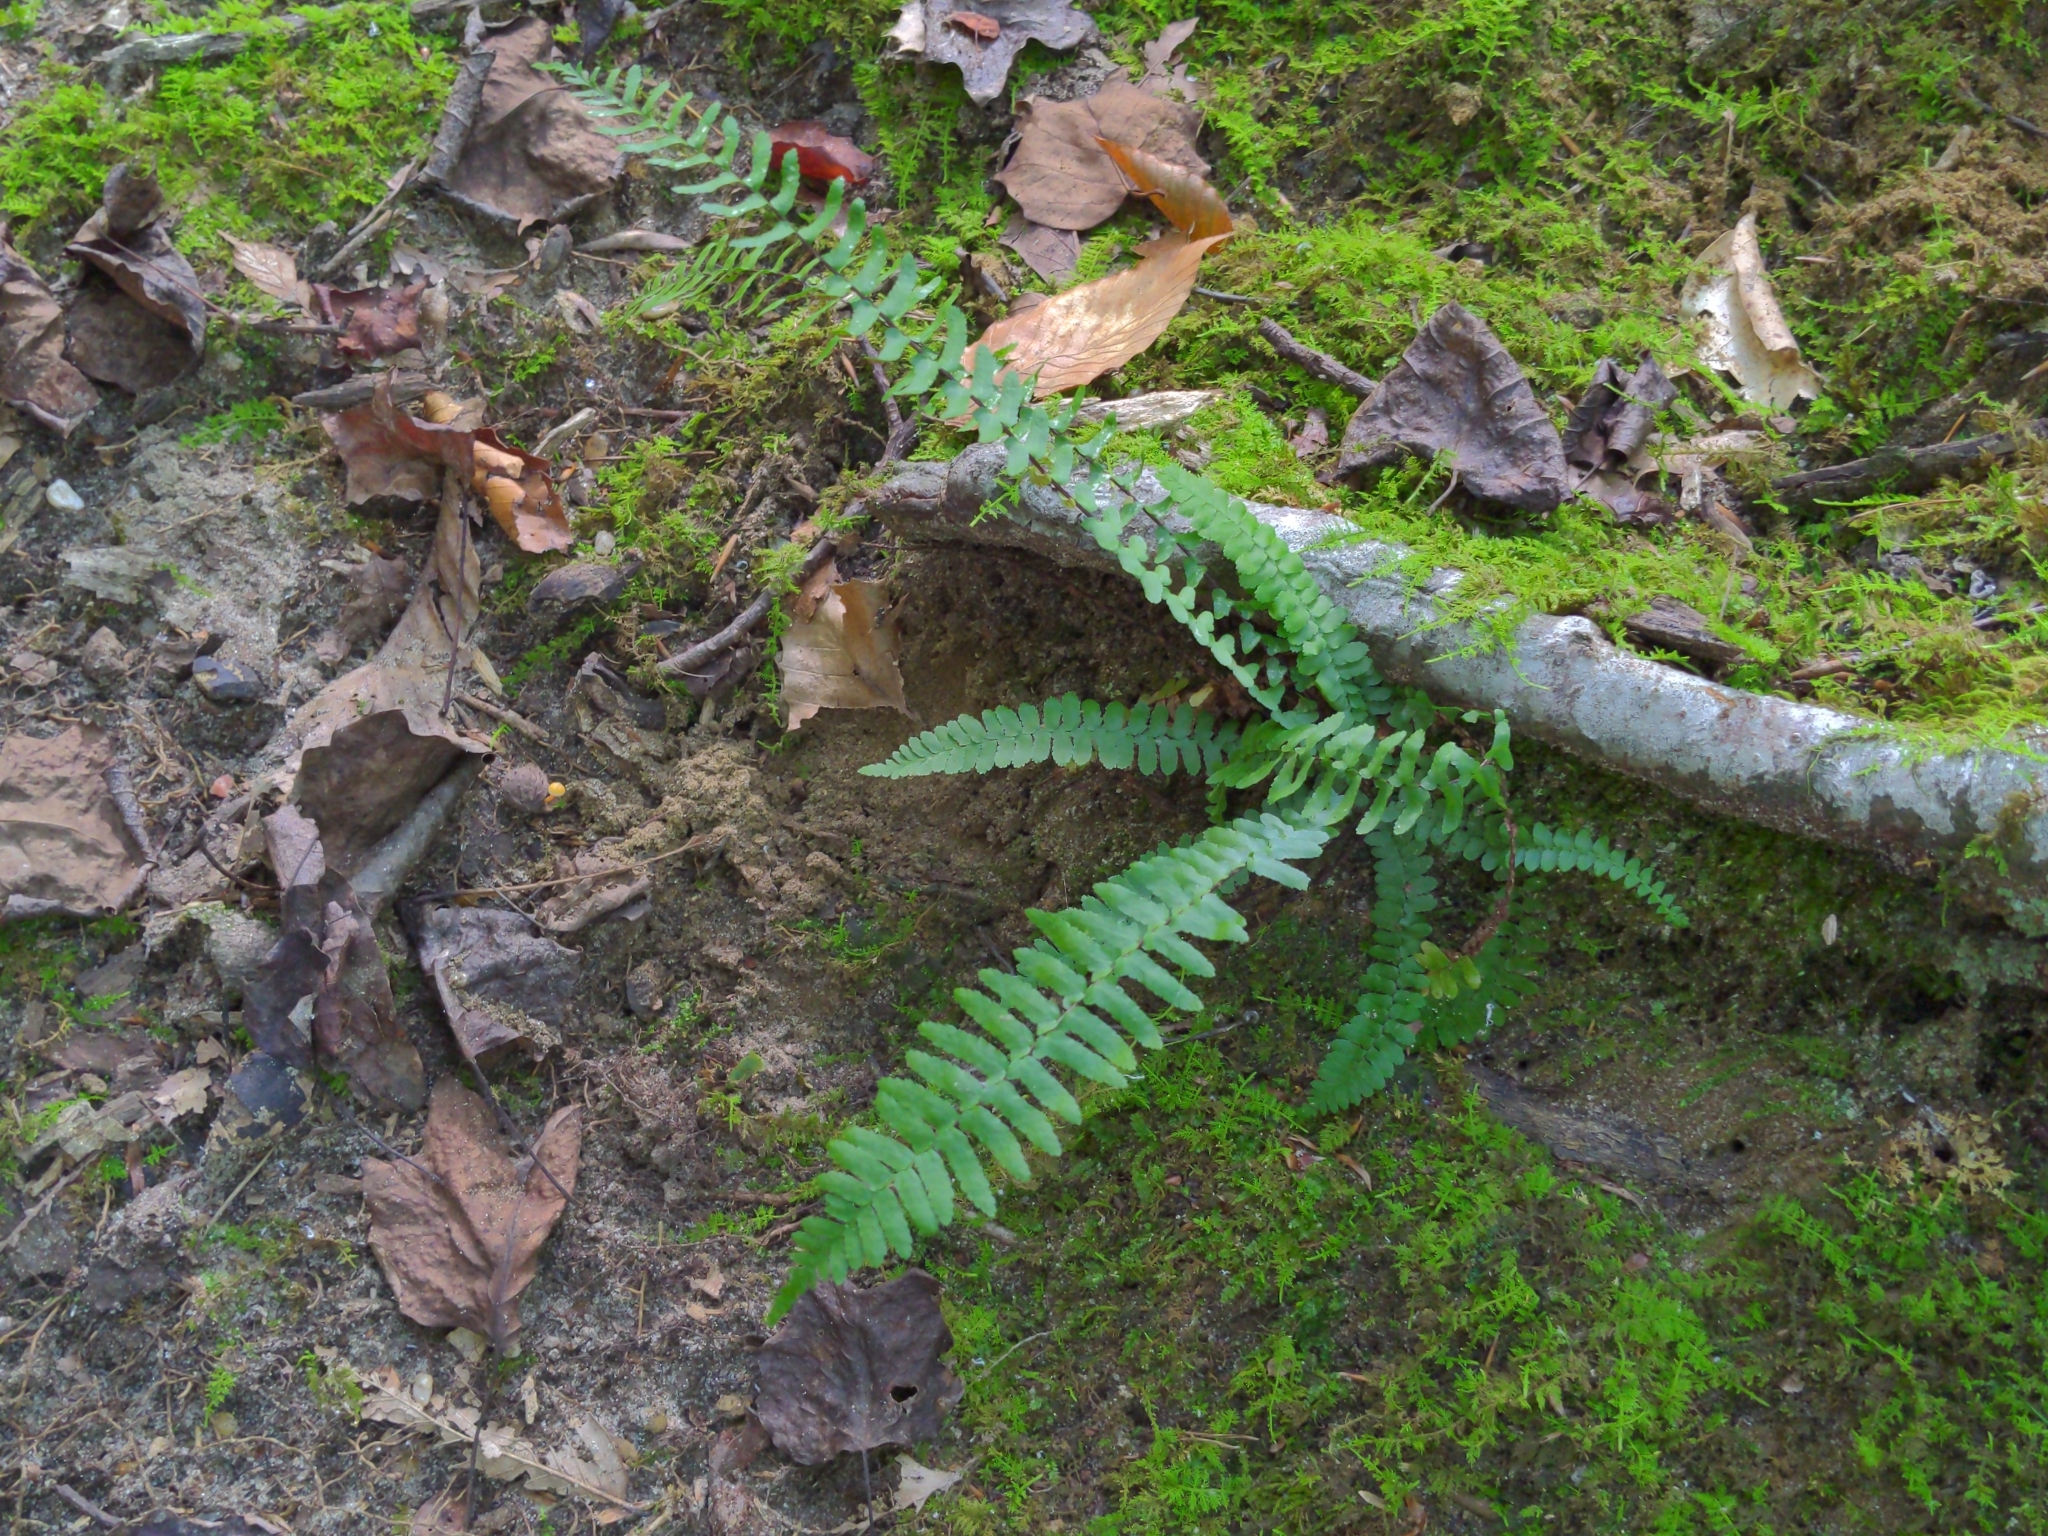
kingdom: Plantae
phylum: Tracheophyta
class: Polypodiopsida
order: Polypodiales
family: Aspleniaceae
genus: Asplenium
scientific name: Asplenium platyneuron
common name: Ebony spleenwort
